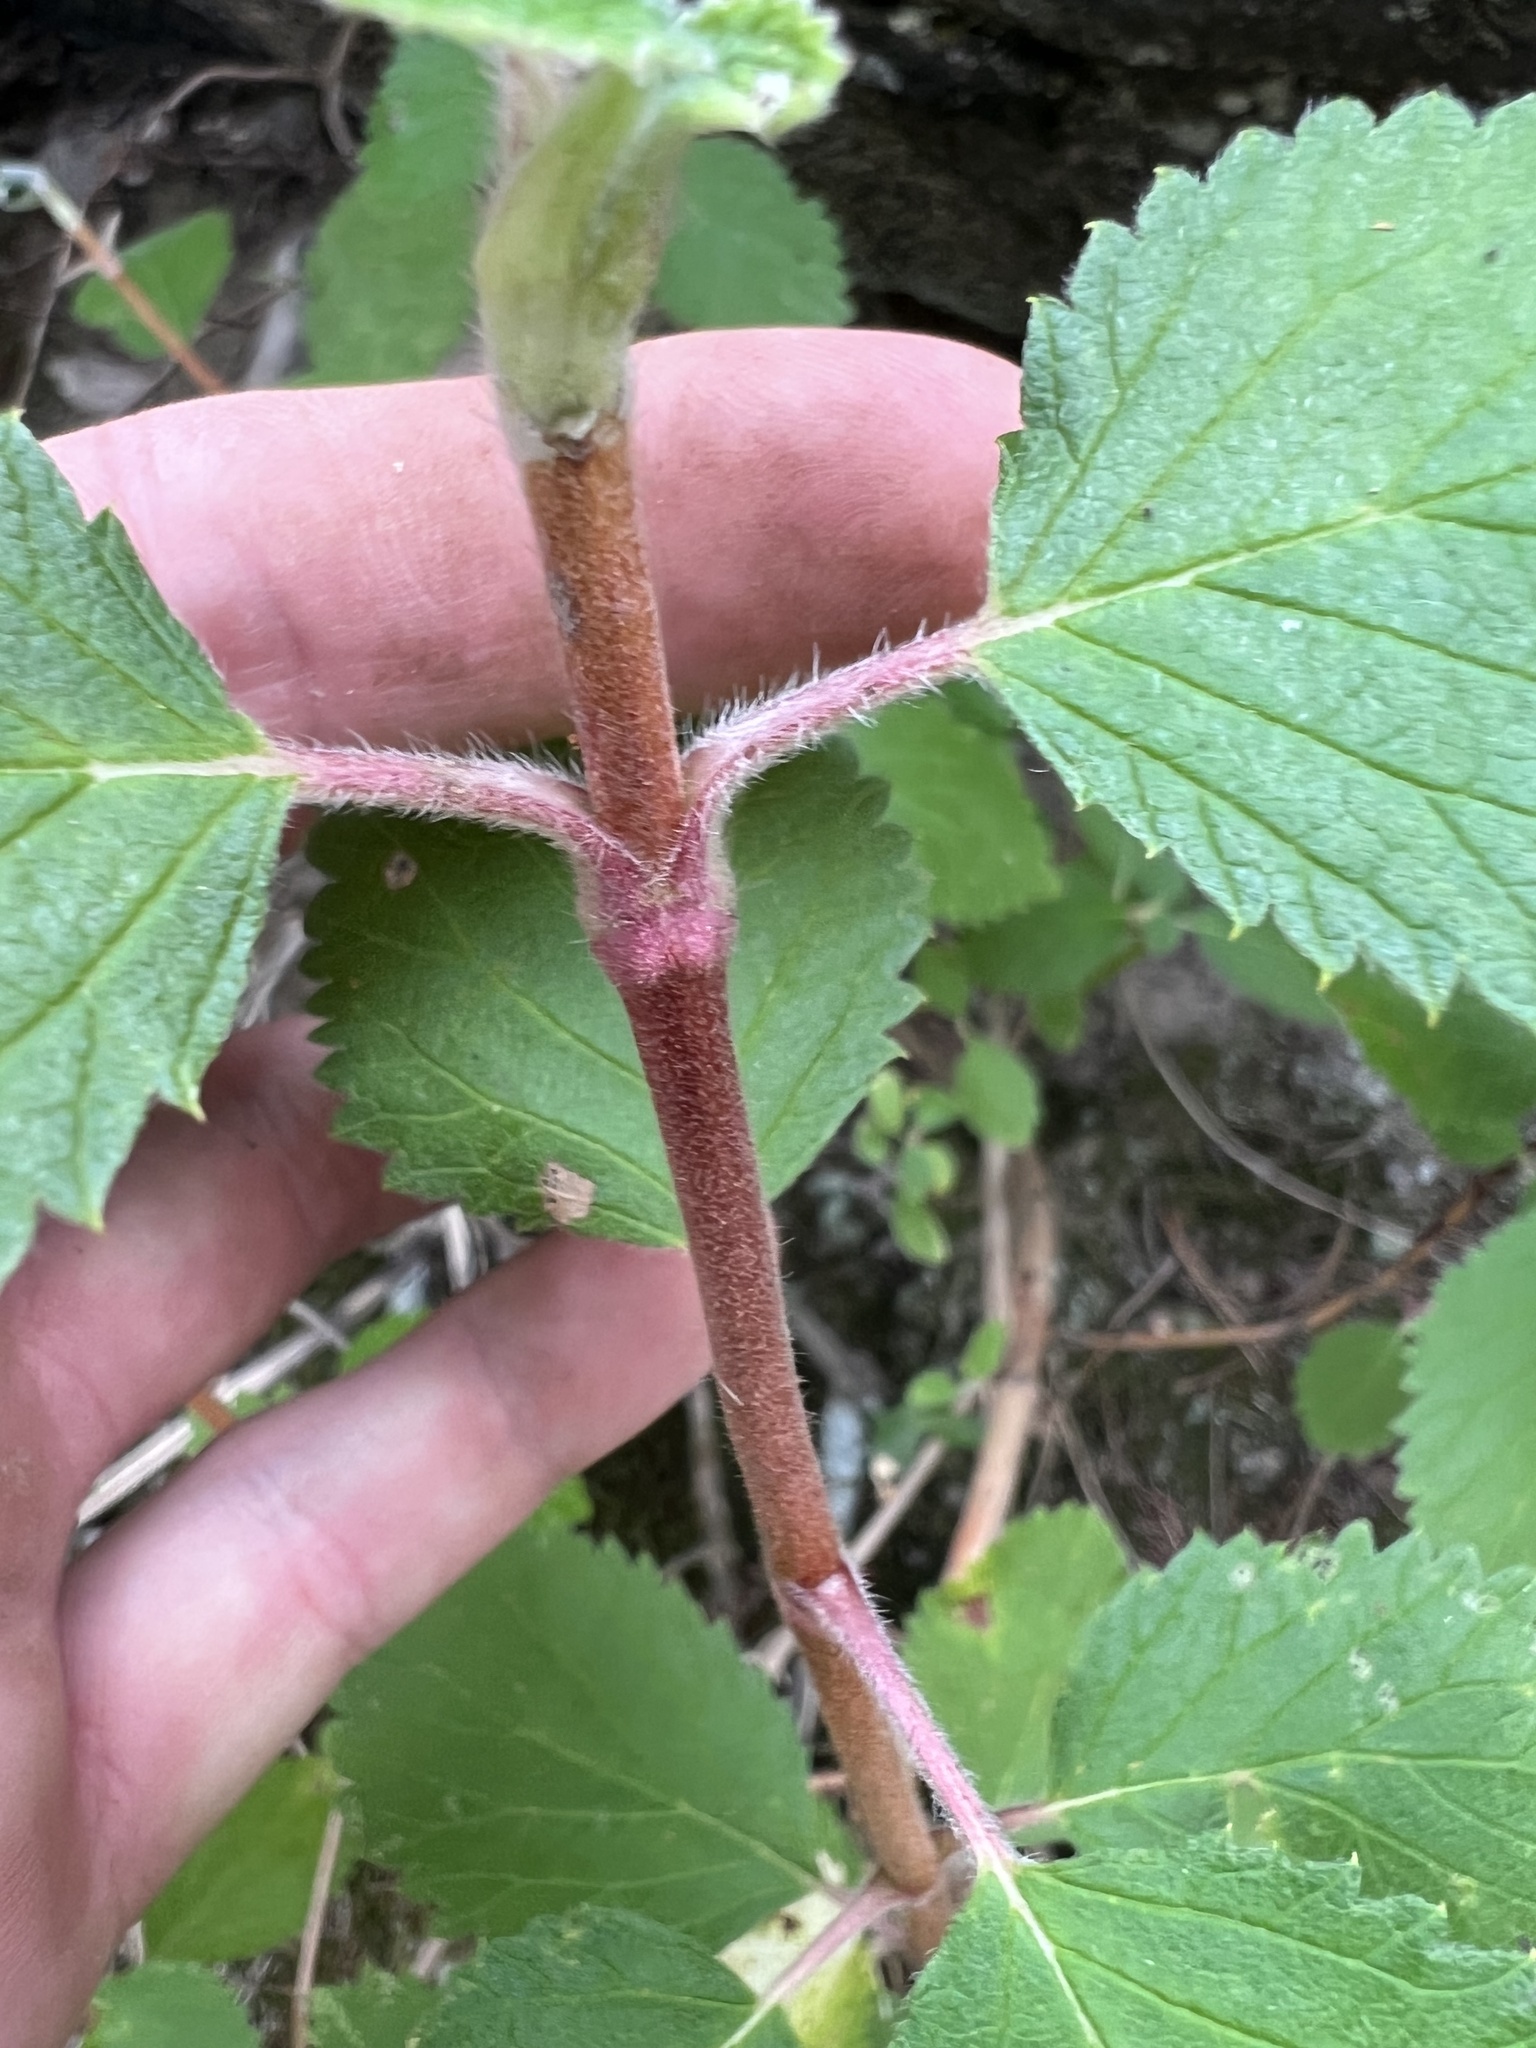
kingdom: Plantae
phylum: Tracheophyta
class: Magnoliopsida
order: Cornales
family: Hydrangeaceae
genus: Jamesia
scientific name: Jamesia americana
